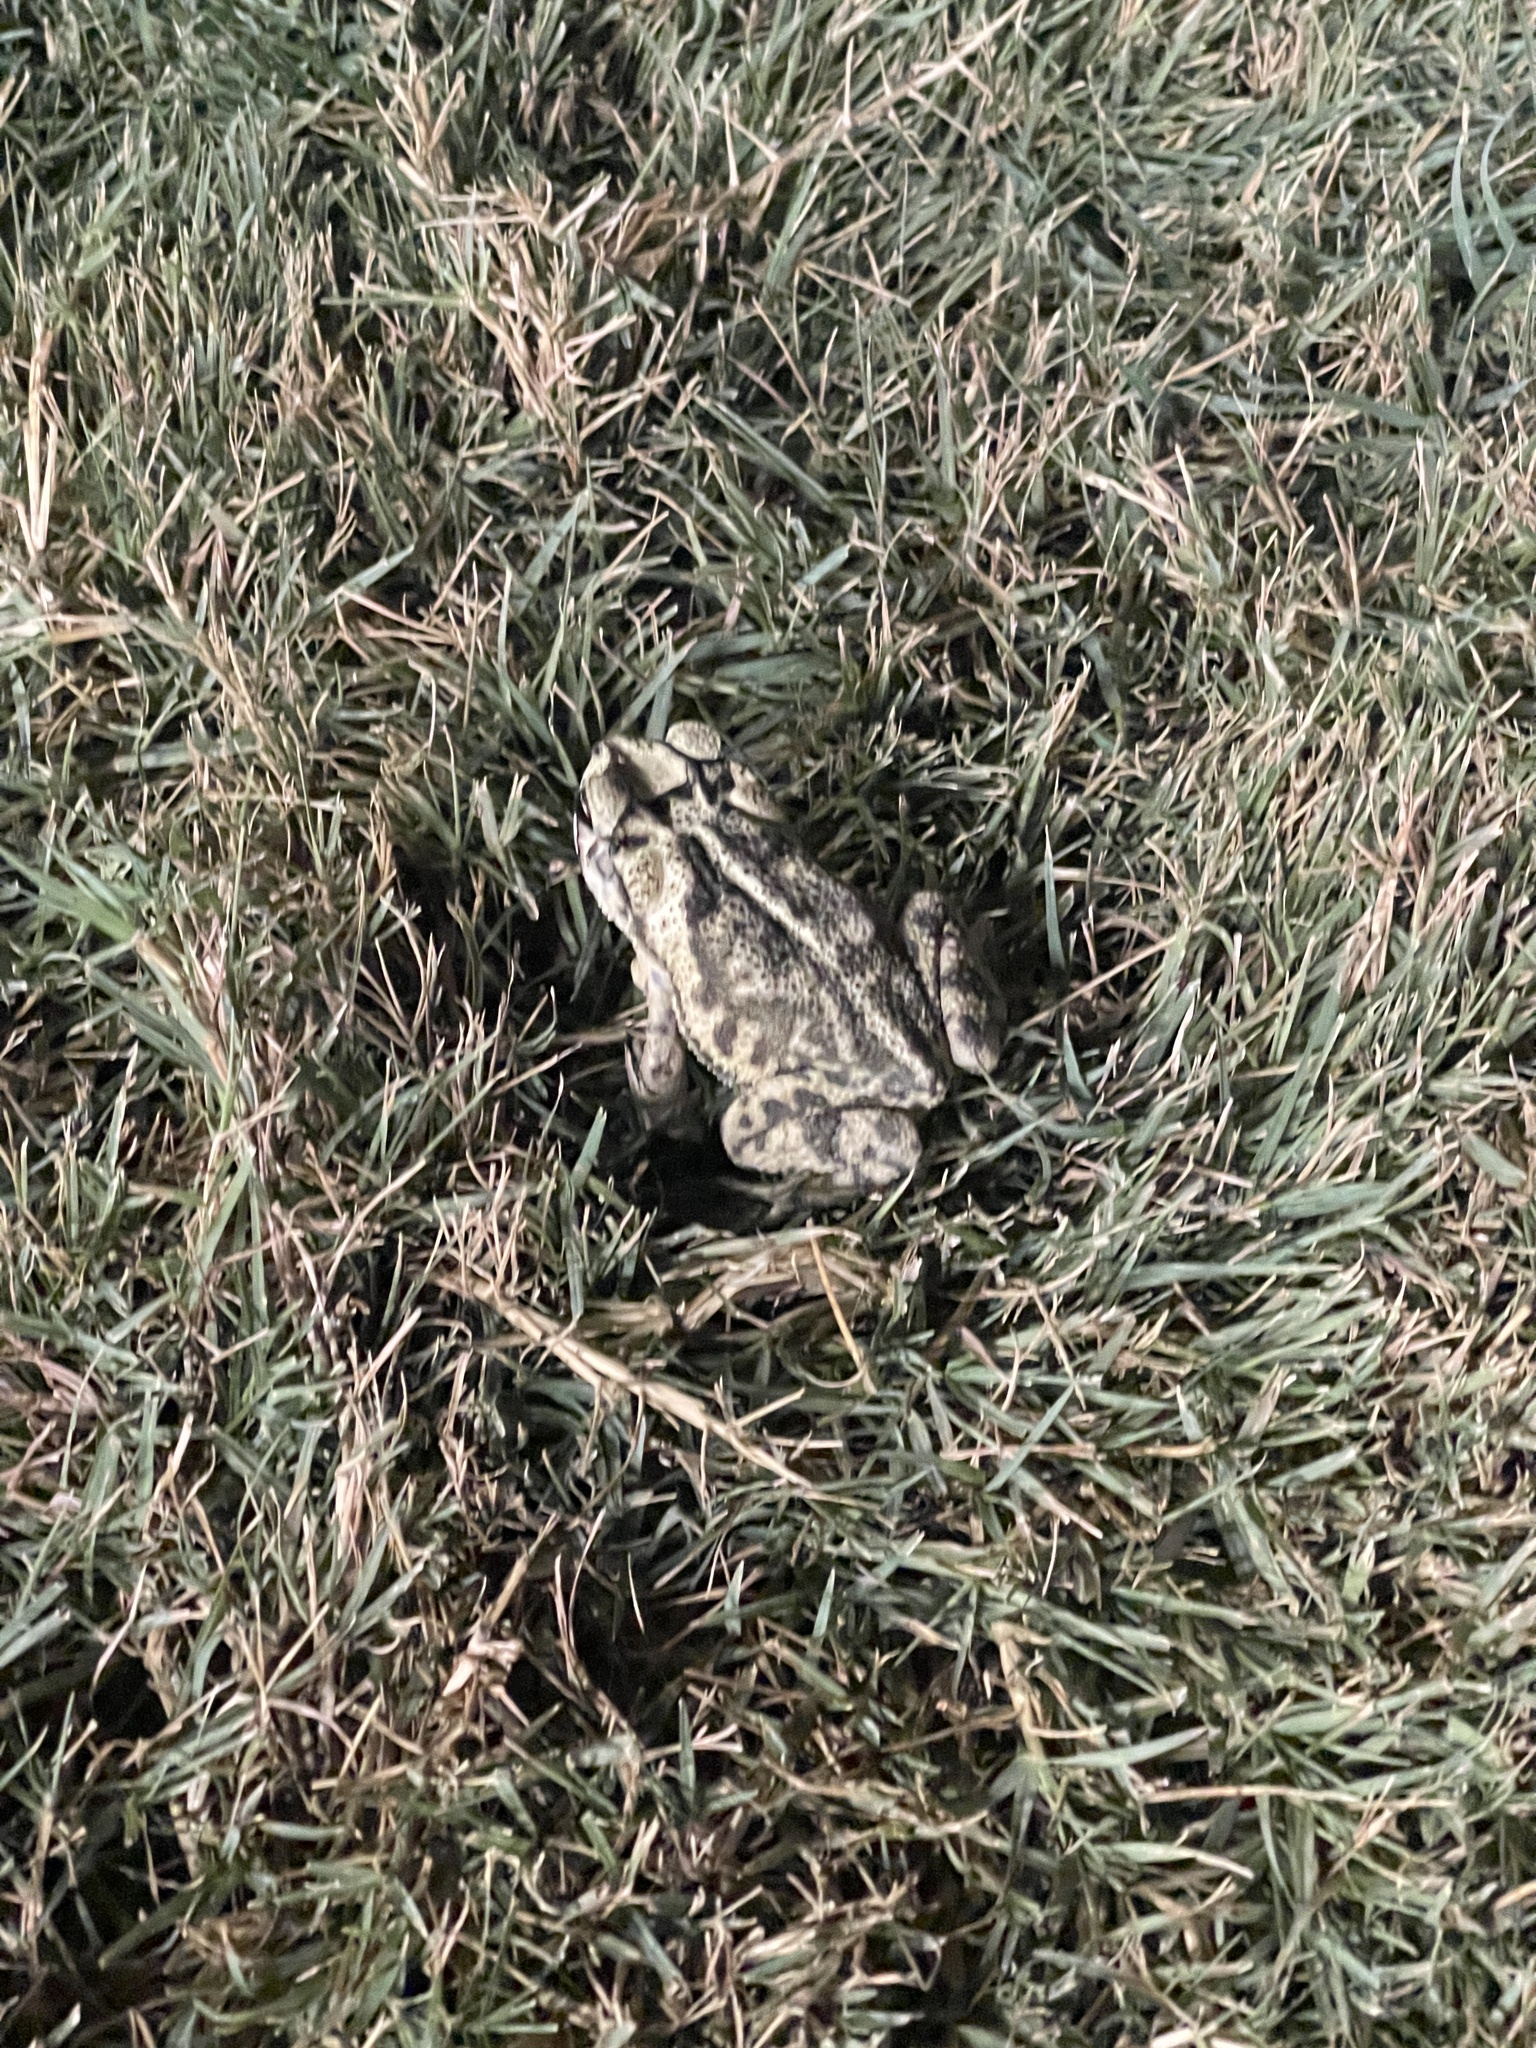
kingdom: Animalia
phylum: Chordata
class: Amphibia
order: Anura
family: Bufonidae
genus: Incilius
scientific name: Incilius nebulifer
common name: Gulf coast toad
